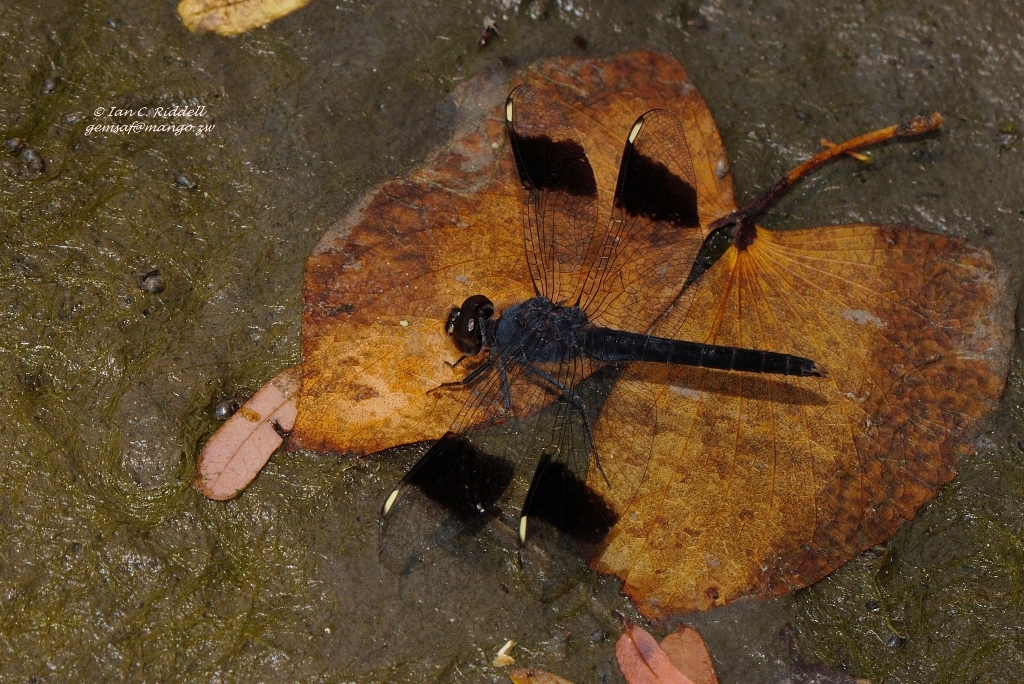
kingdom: Animalia
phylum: Arthropoda
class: Insecta
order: Odonata
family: Libellulidae
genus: Brachythemis
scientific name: Brachythemis leucosticta
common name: Banded groundling
